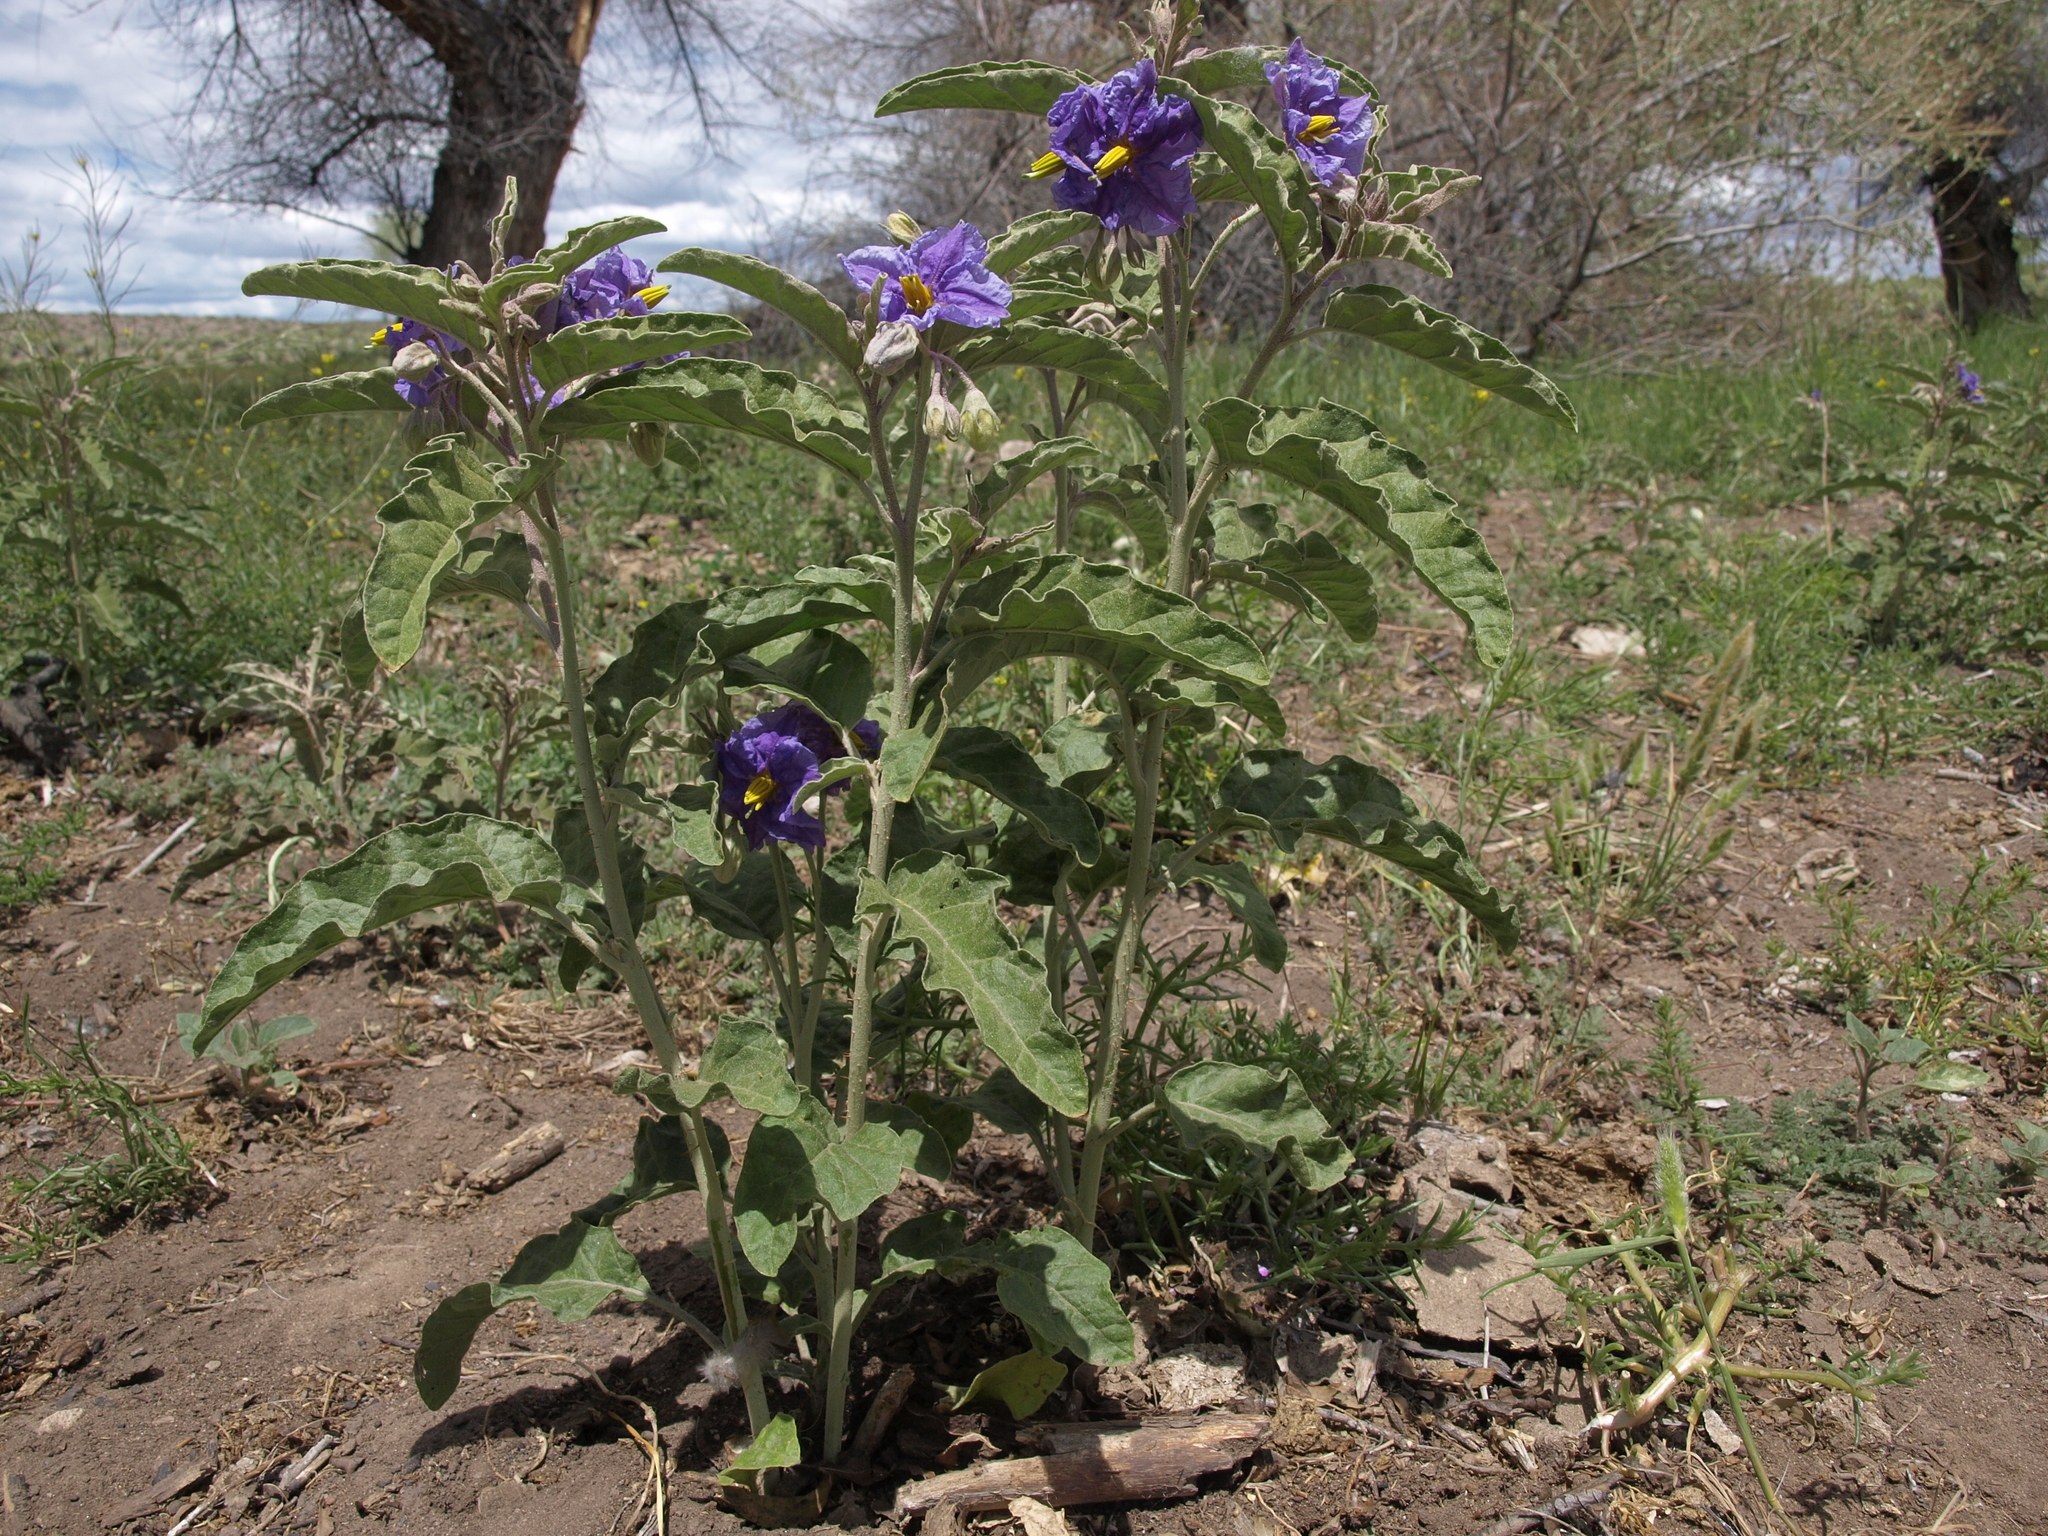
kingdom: Plantae
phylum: Tracheophyta
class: Magnoliopsida
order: Solanales
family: Solanaceae
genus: Solanum
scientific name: Solanum elaeagnifolium
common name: Silverleaf nightshade
